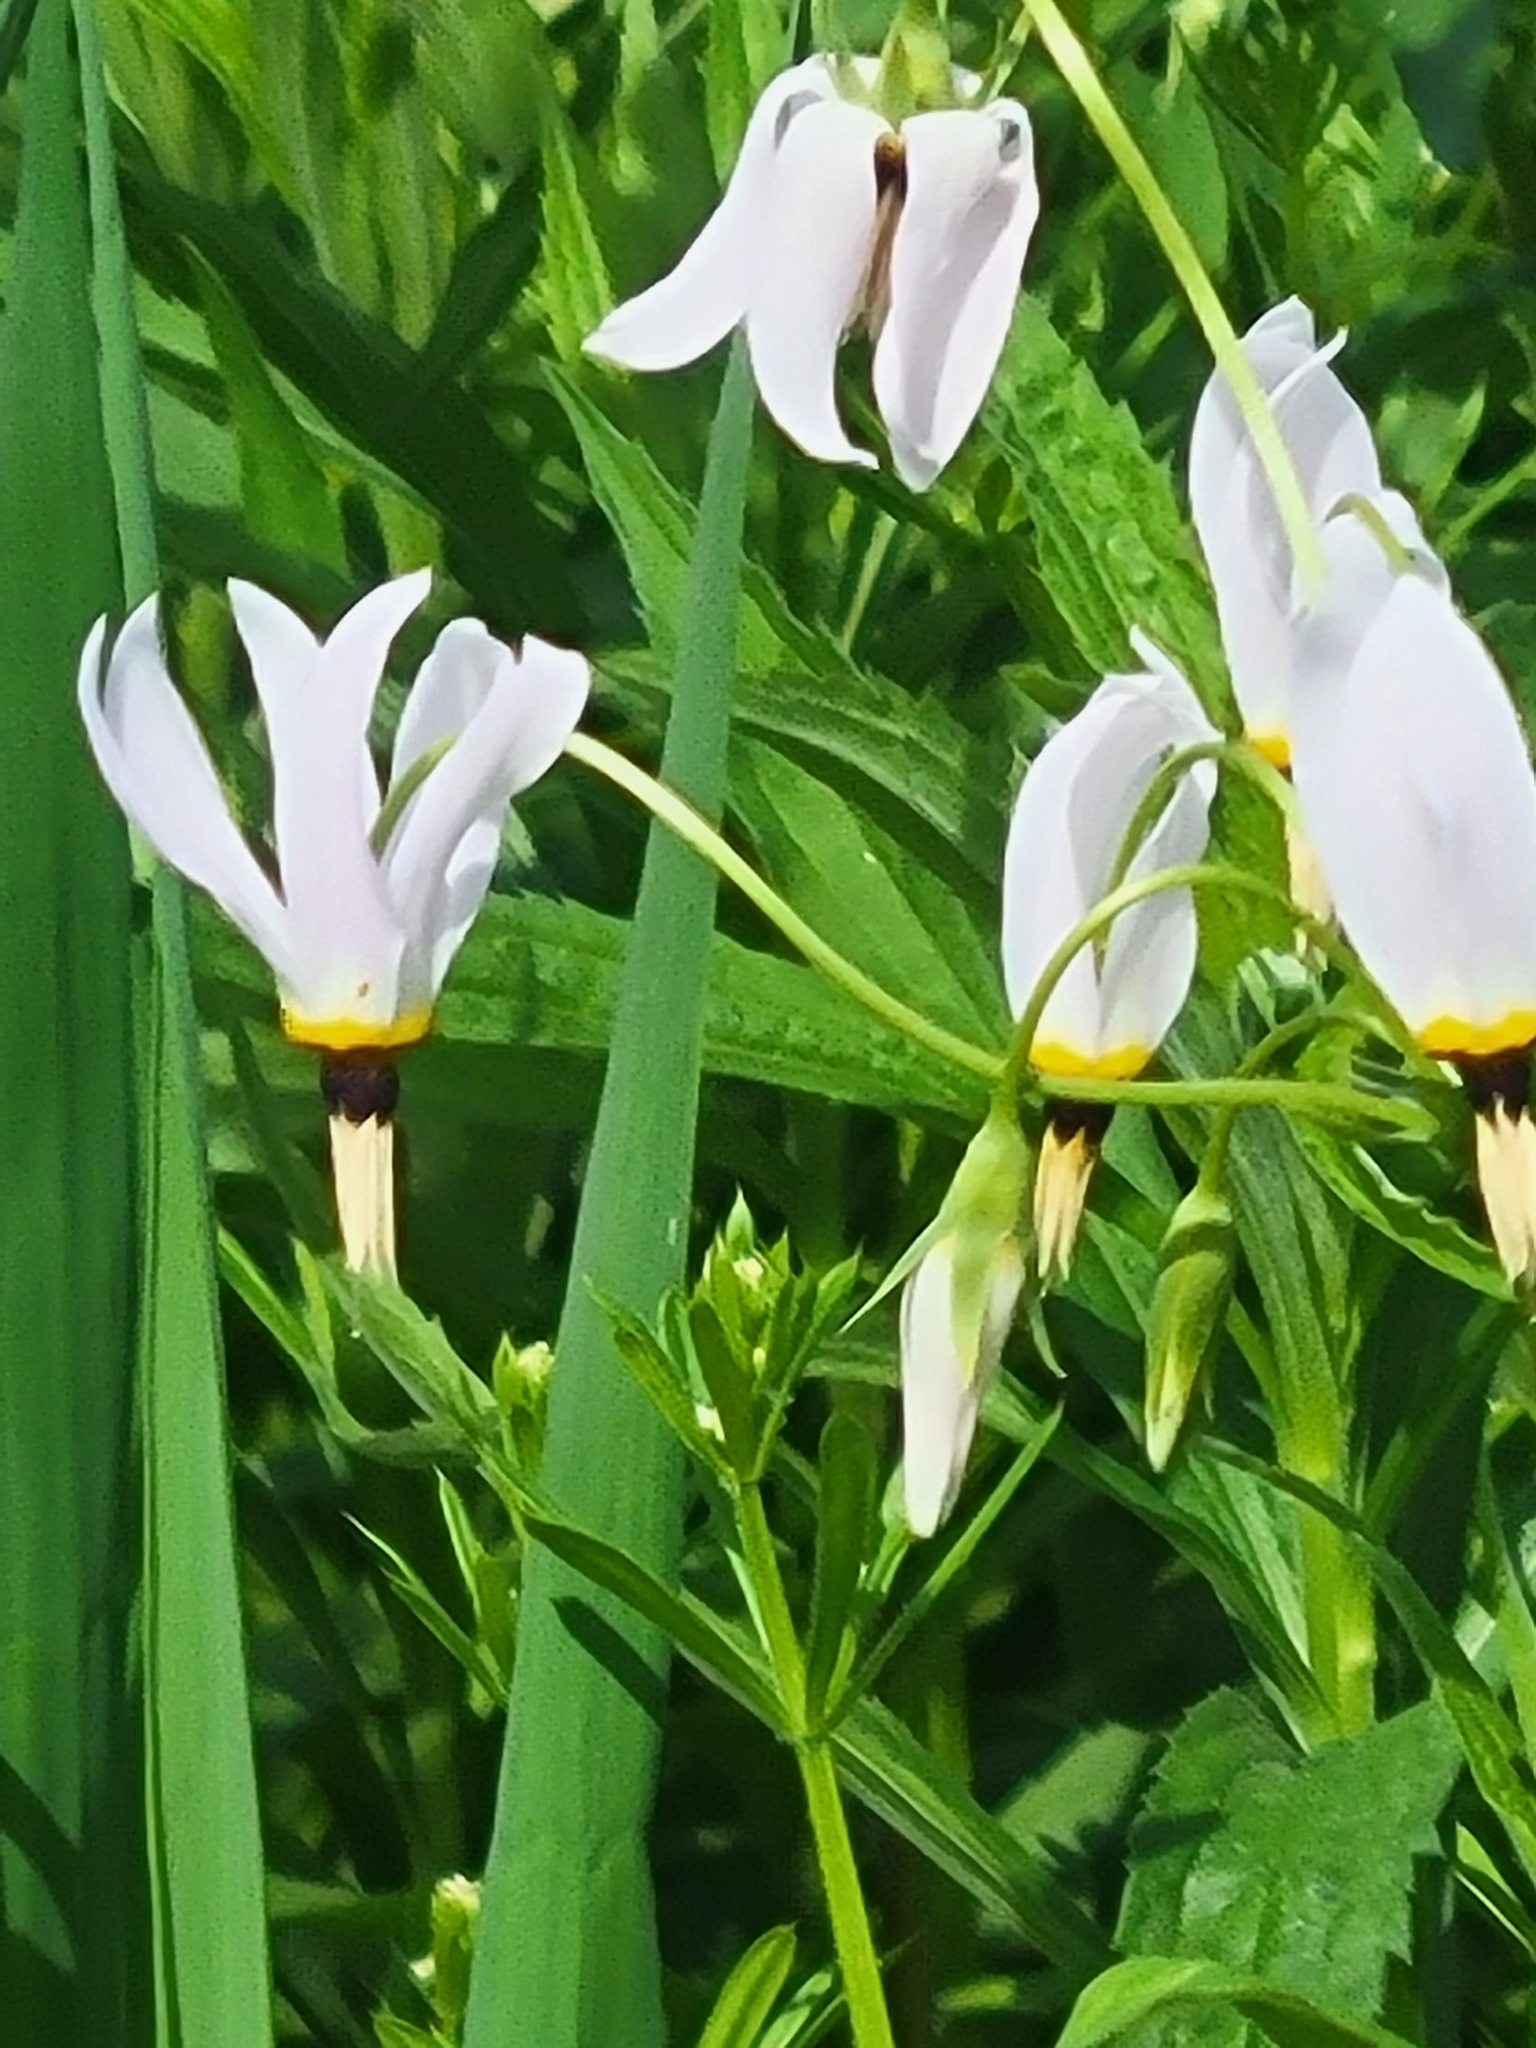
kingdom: Plantae
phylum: Tracheophyta
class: Magnoliopsida
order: Ericales
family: Primulaceae
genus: Dodecatheon
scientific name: Dodecatheon meadia
